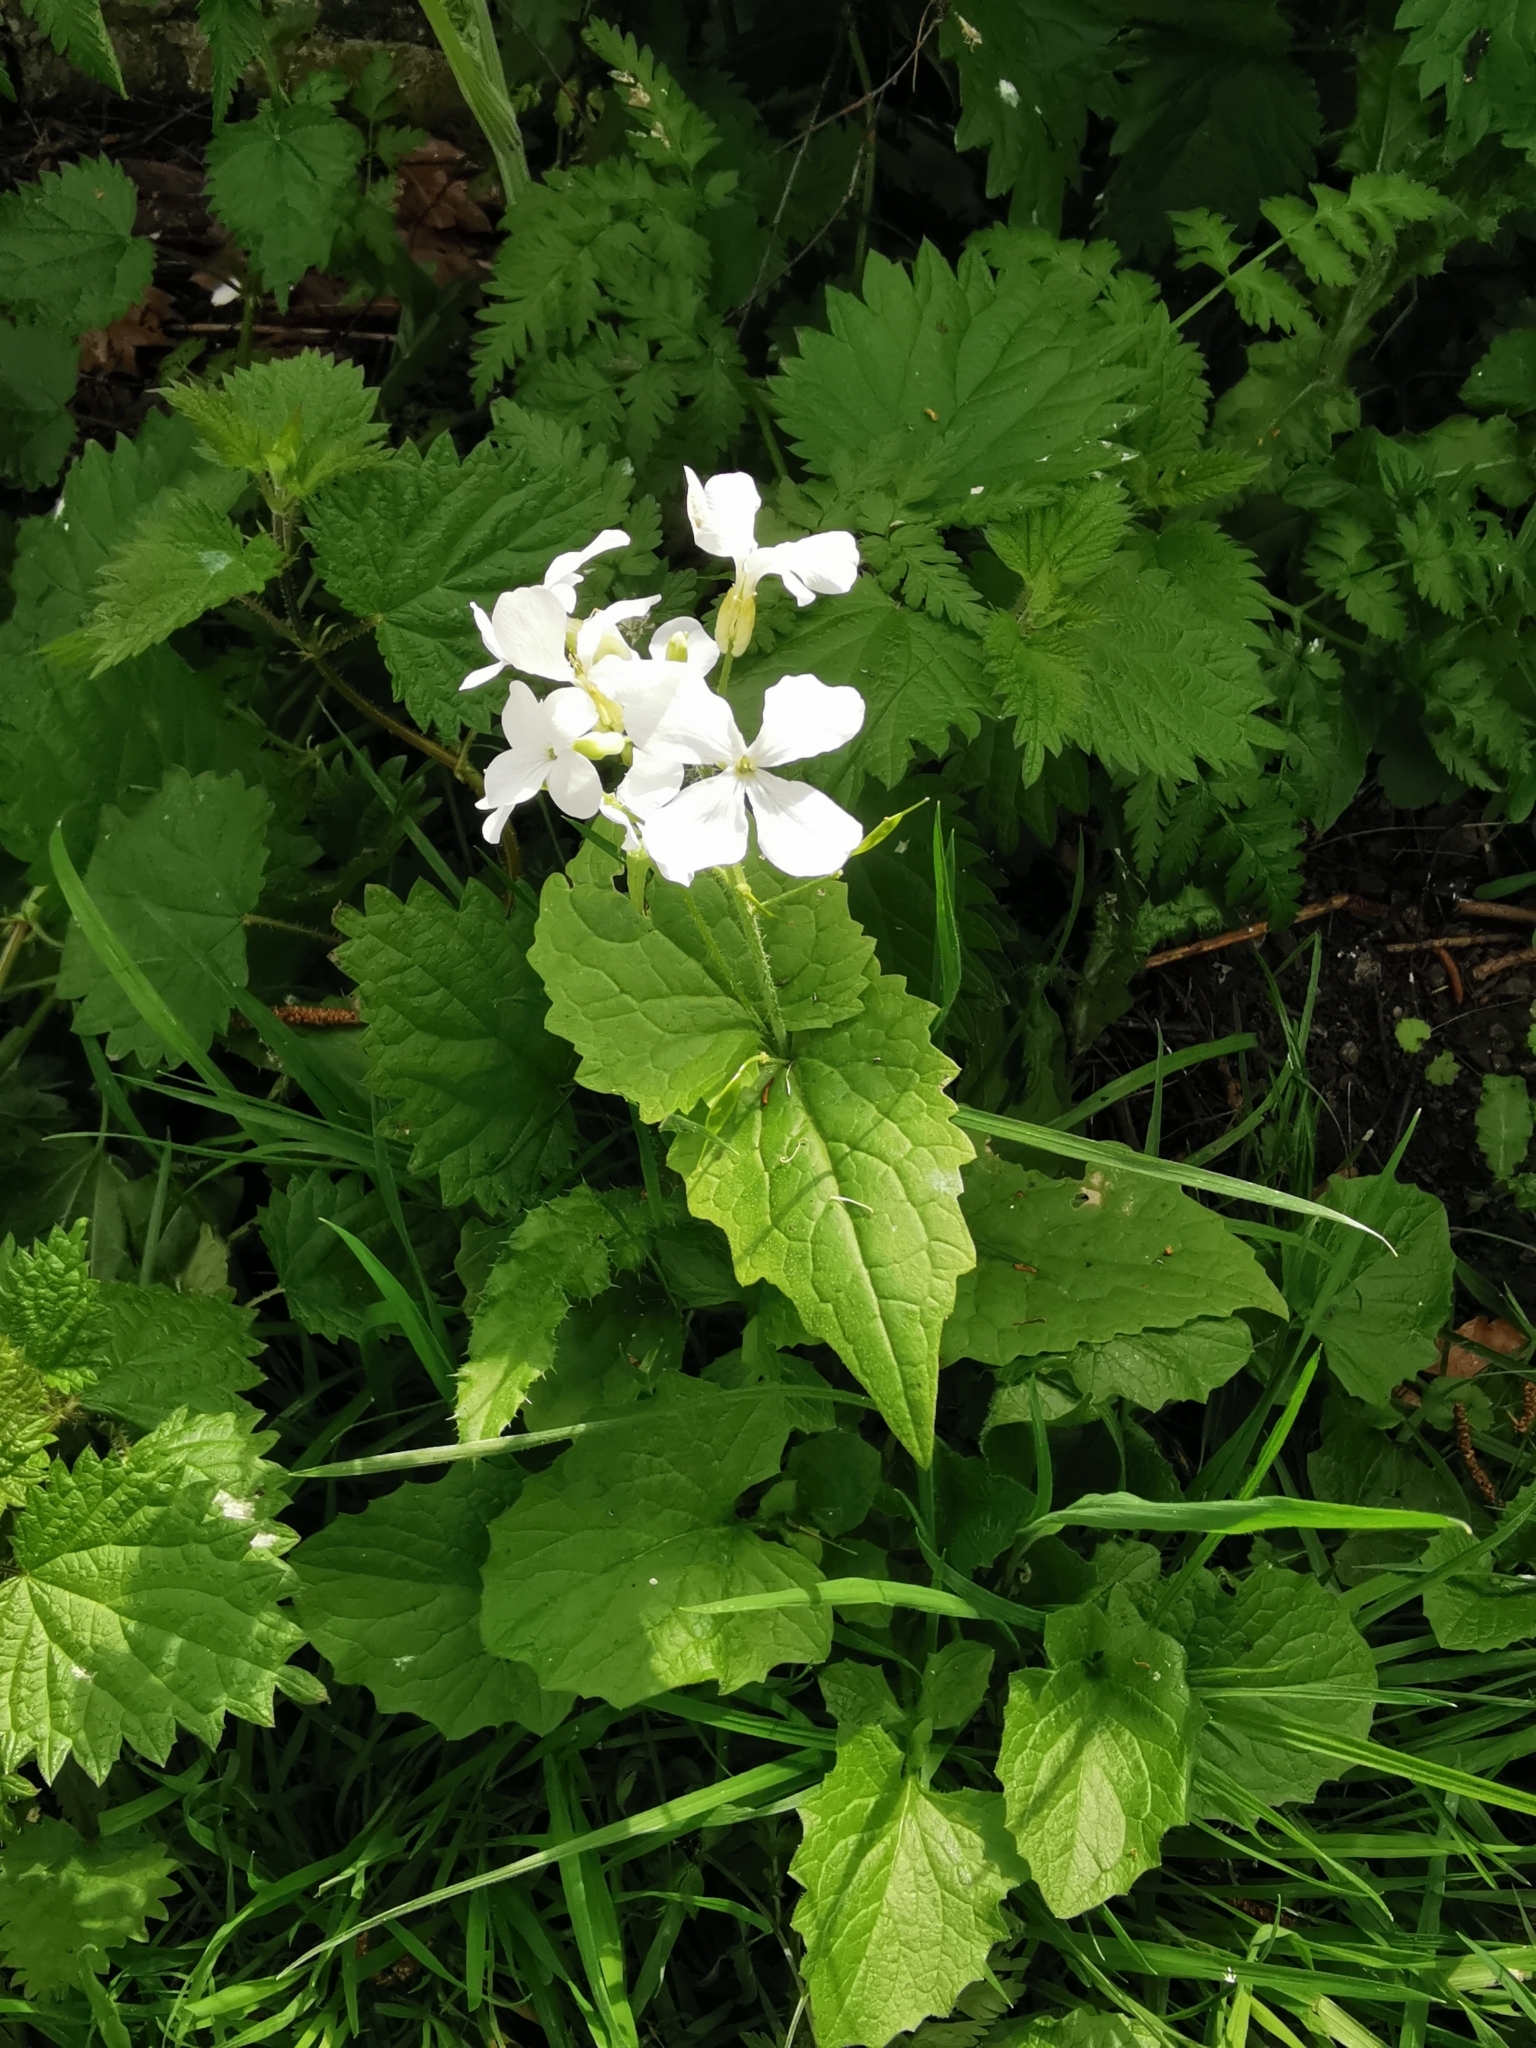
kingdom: Plantae
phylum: Tracheophyta
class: Magnoliopsida
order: Brassicales
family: Brassicaceae
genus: Lunaria
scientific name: Lunaria annua
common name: Honesty
